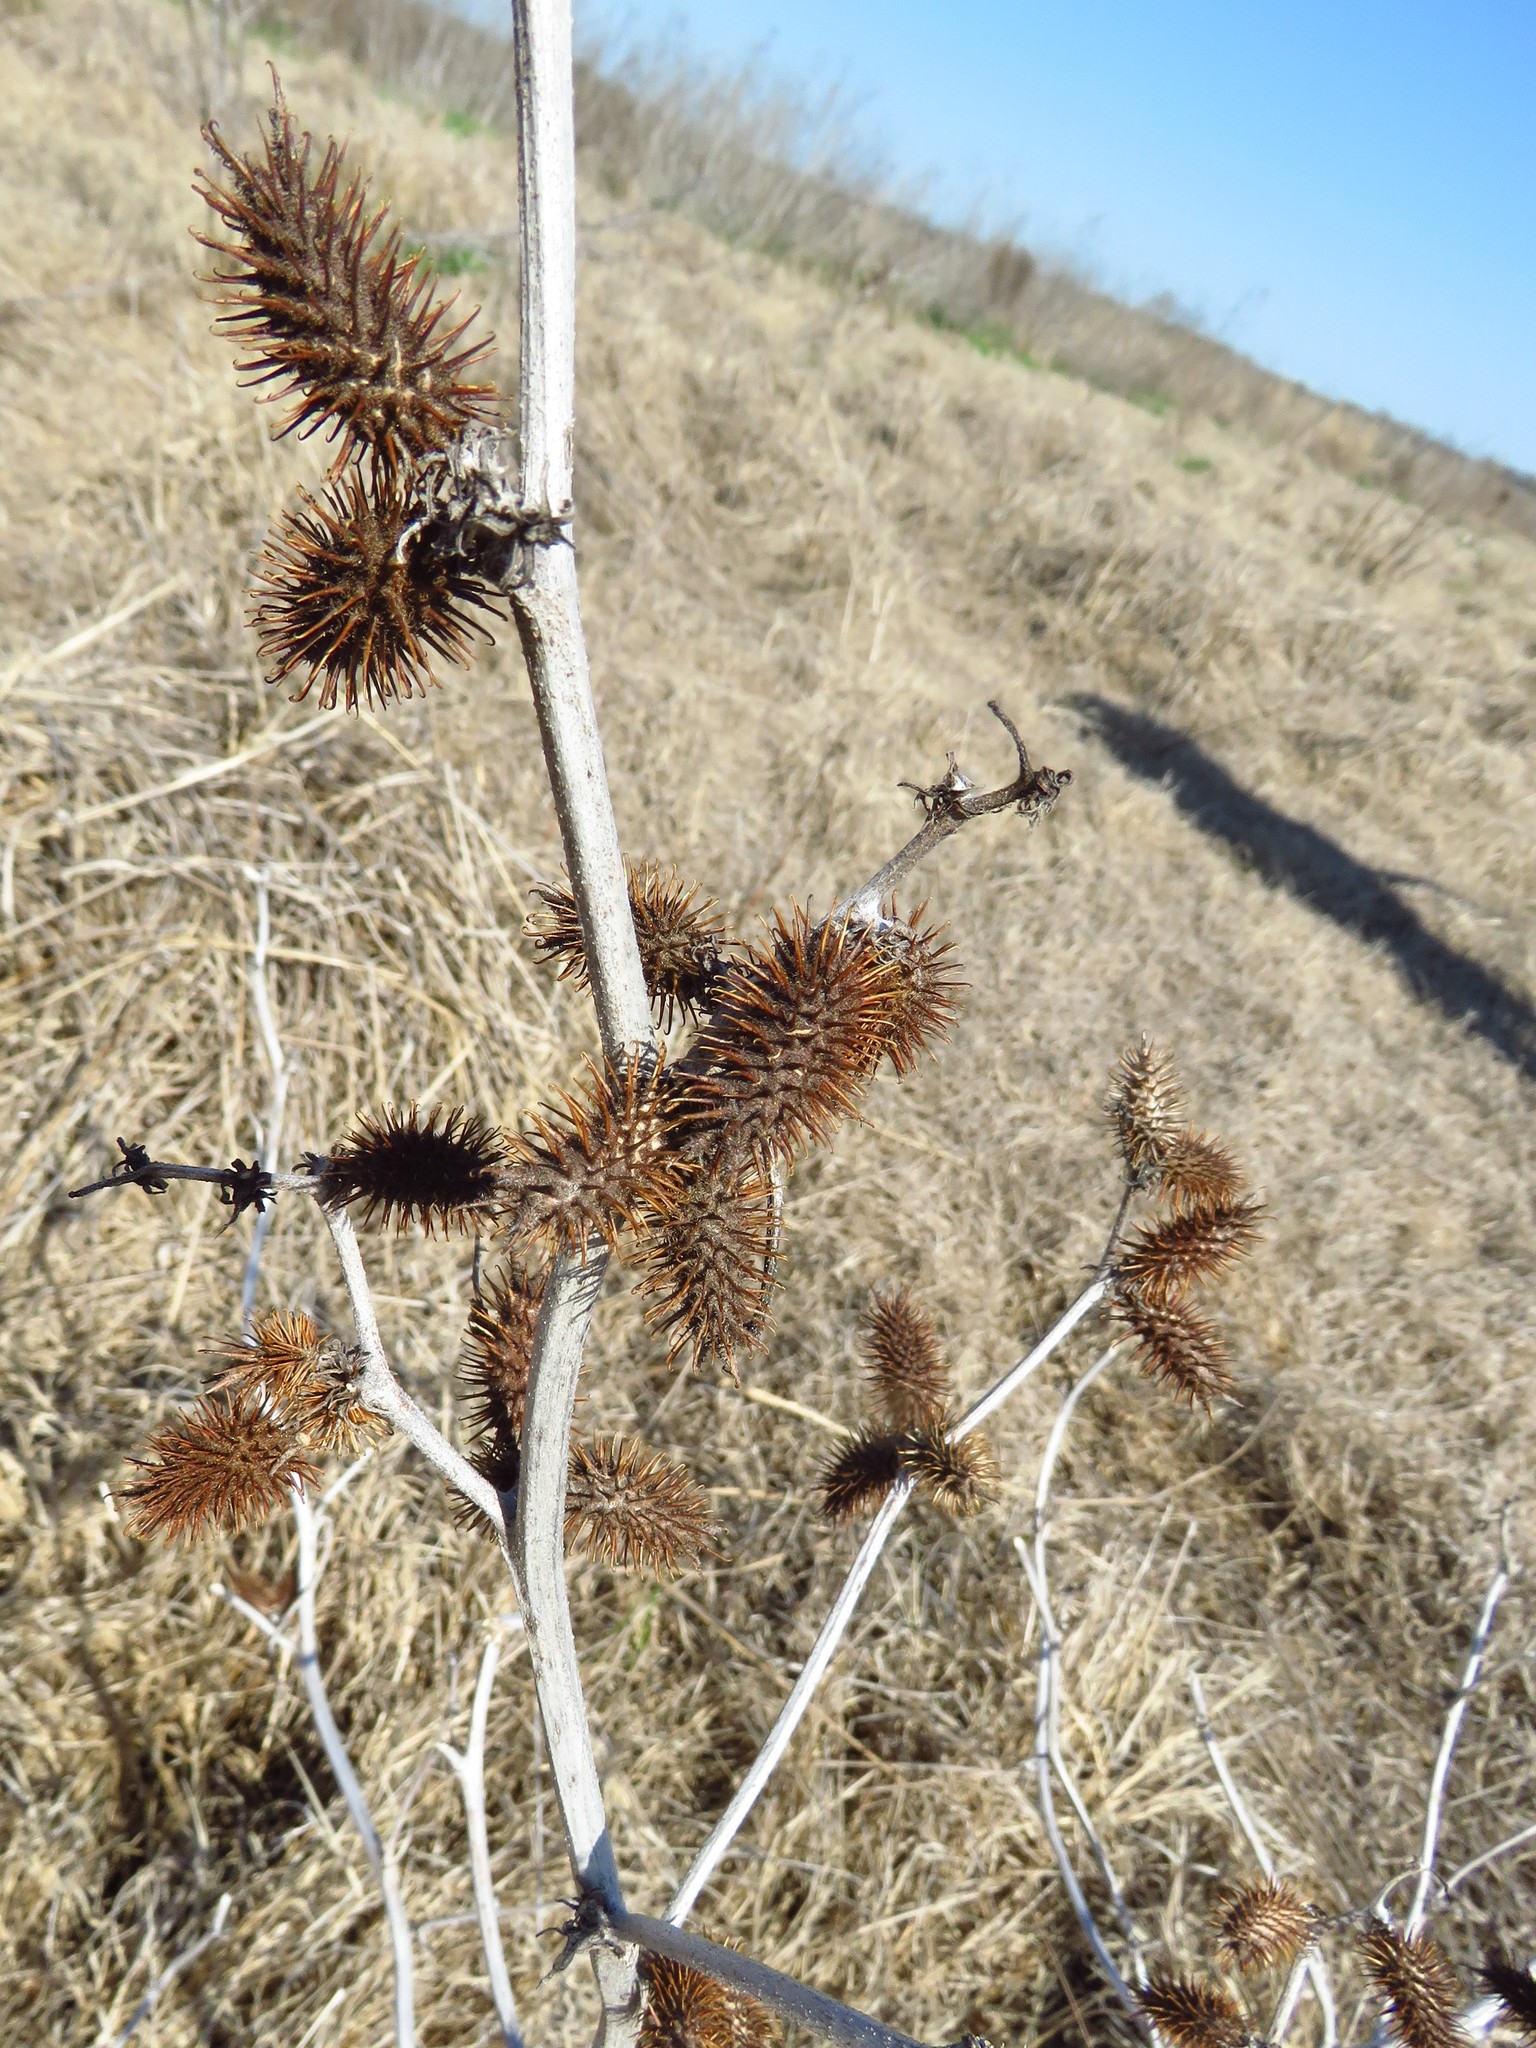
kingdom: Plantae
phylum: Tracheophyta
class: Magnoliopsida
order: Asterales
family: Asteraceae
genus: Xanthium
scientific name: Xanthium strumarium
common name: Rough cocklebur
